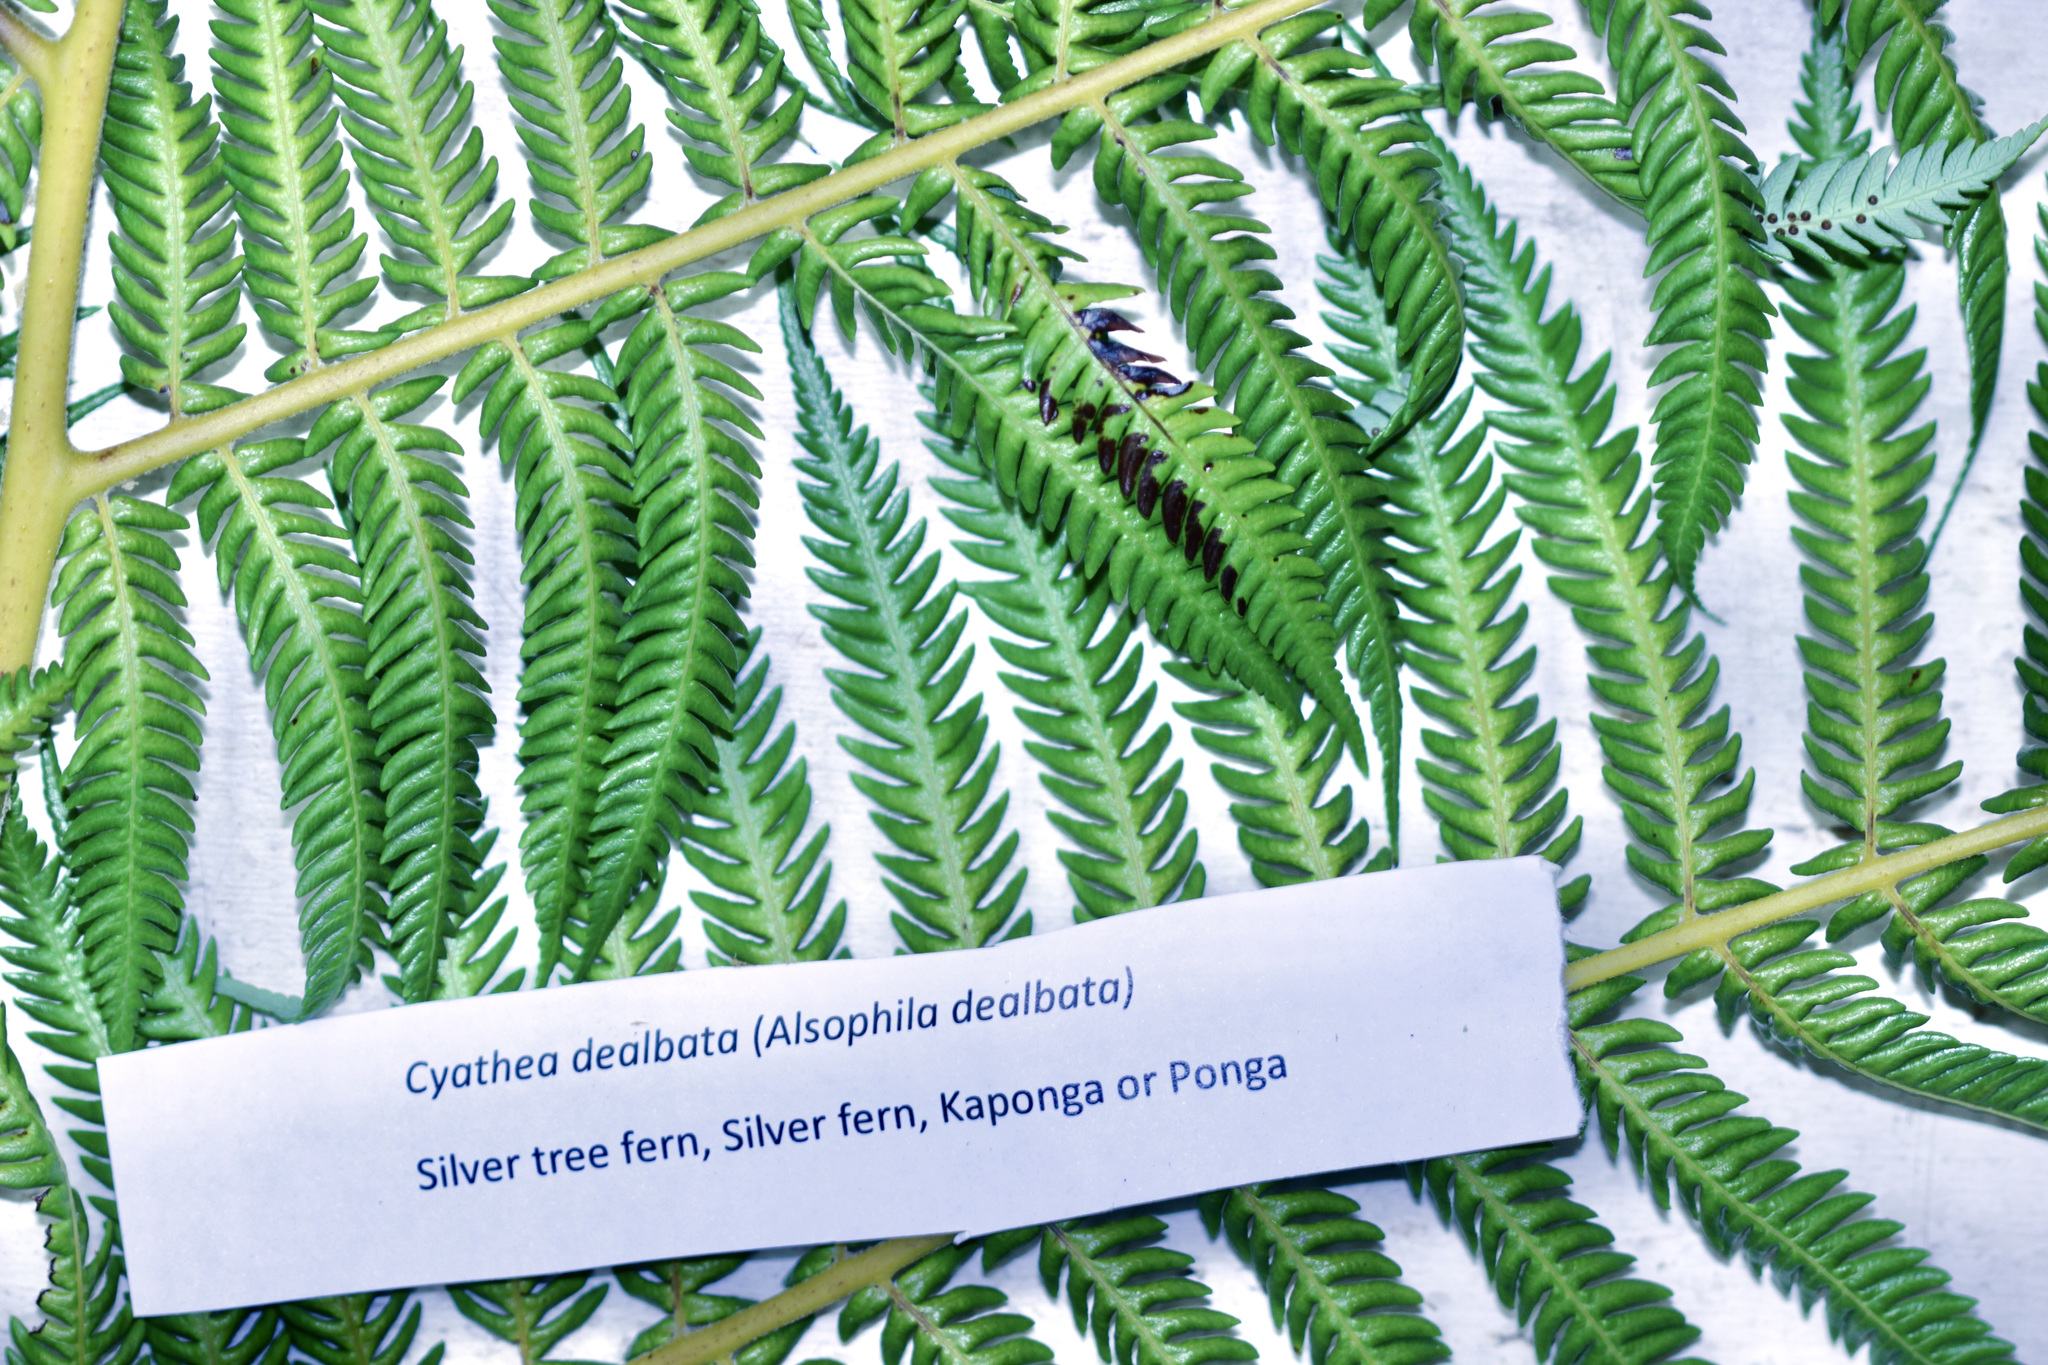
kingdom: Plantae
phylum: Tracheophyta
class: Polypodiopsida
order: Cyatheales
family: Cyatheaceae
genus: Alsophila
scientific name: Alsophila dealbata
